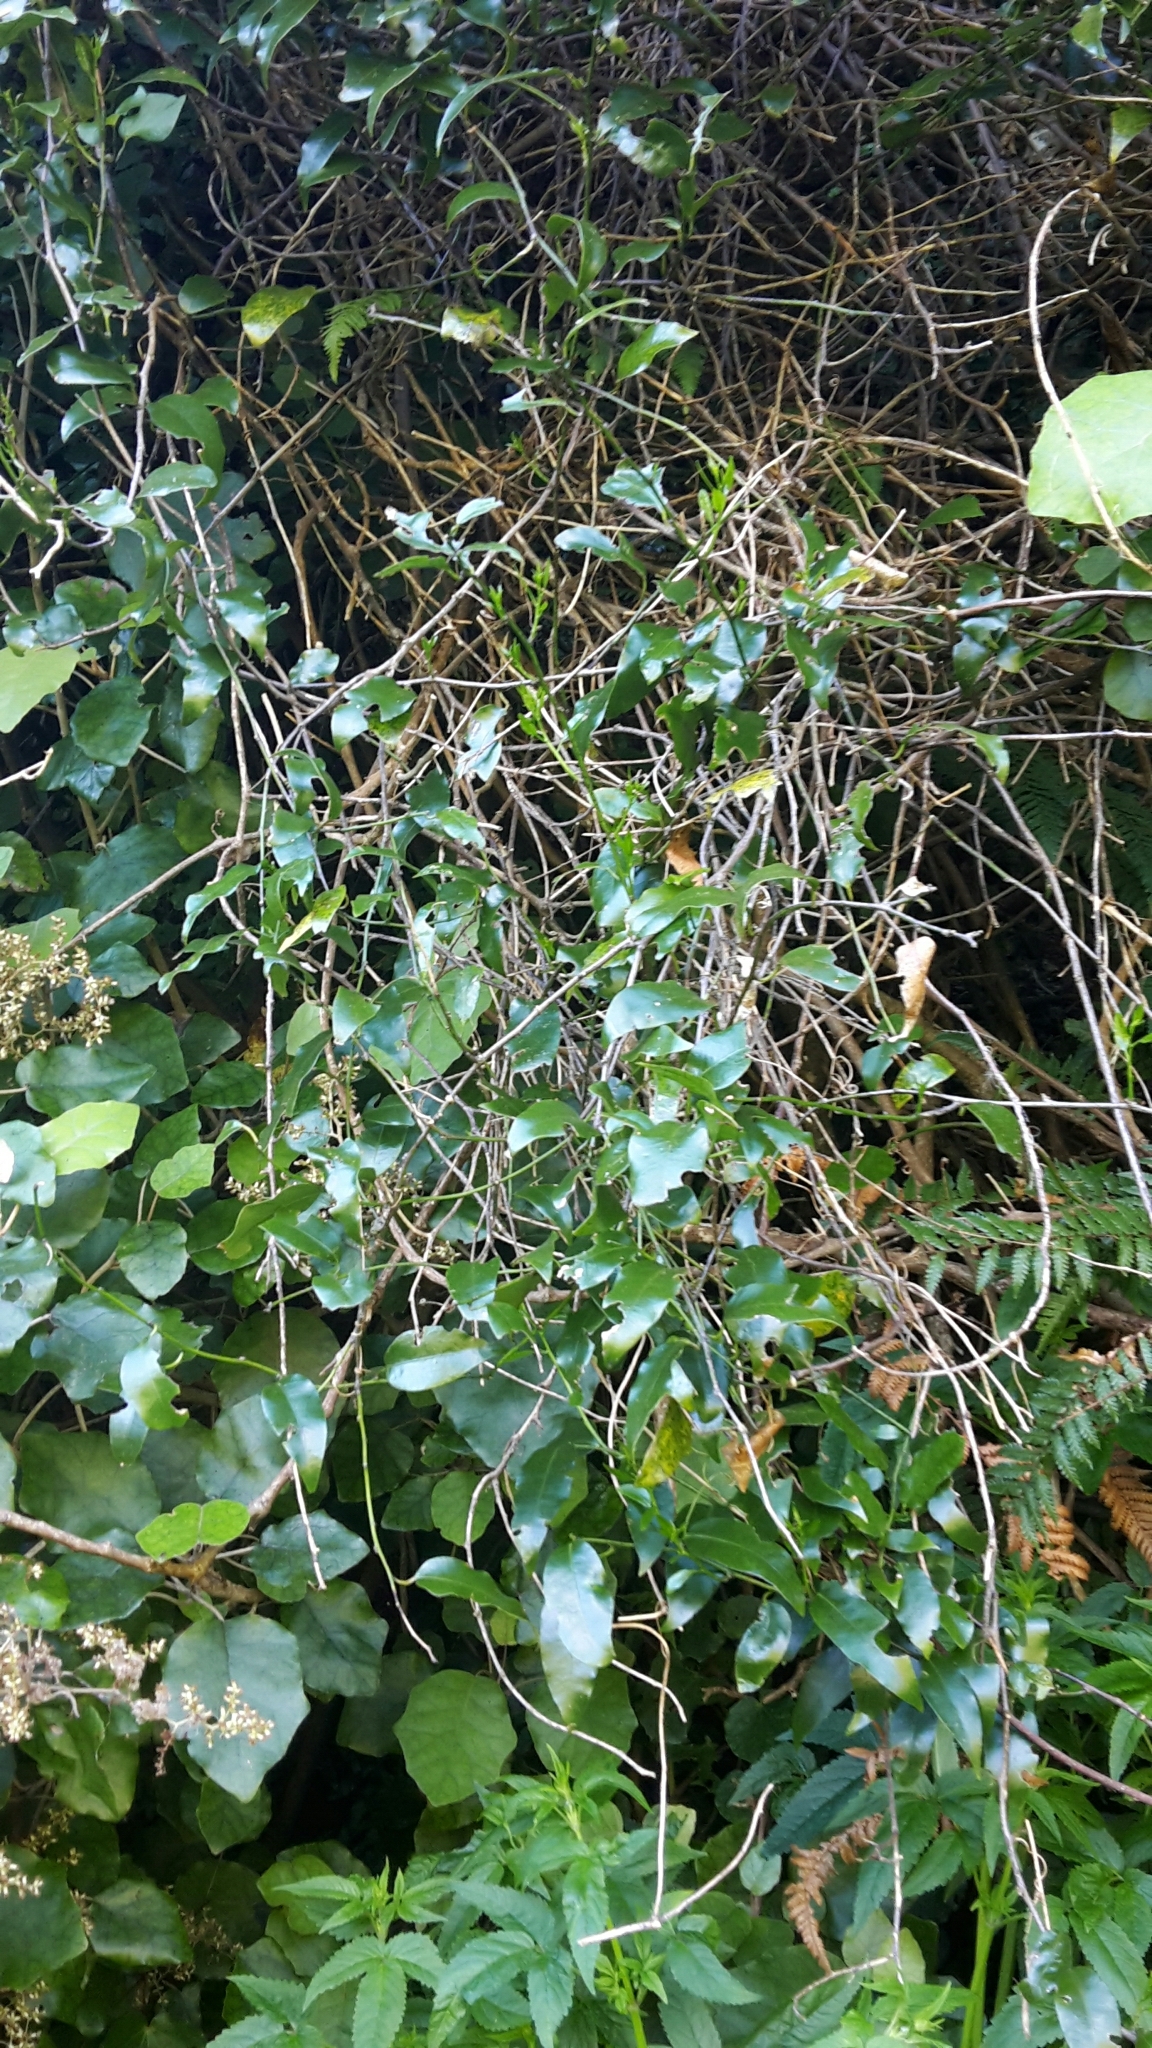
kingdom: Plantae
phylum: Tracheophyta
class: Magnoliopsida
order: Malpighiales
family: Passifloraceae
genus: Passiflora
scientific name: Passiflora tetrandra
